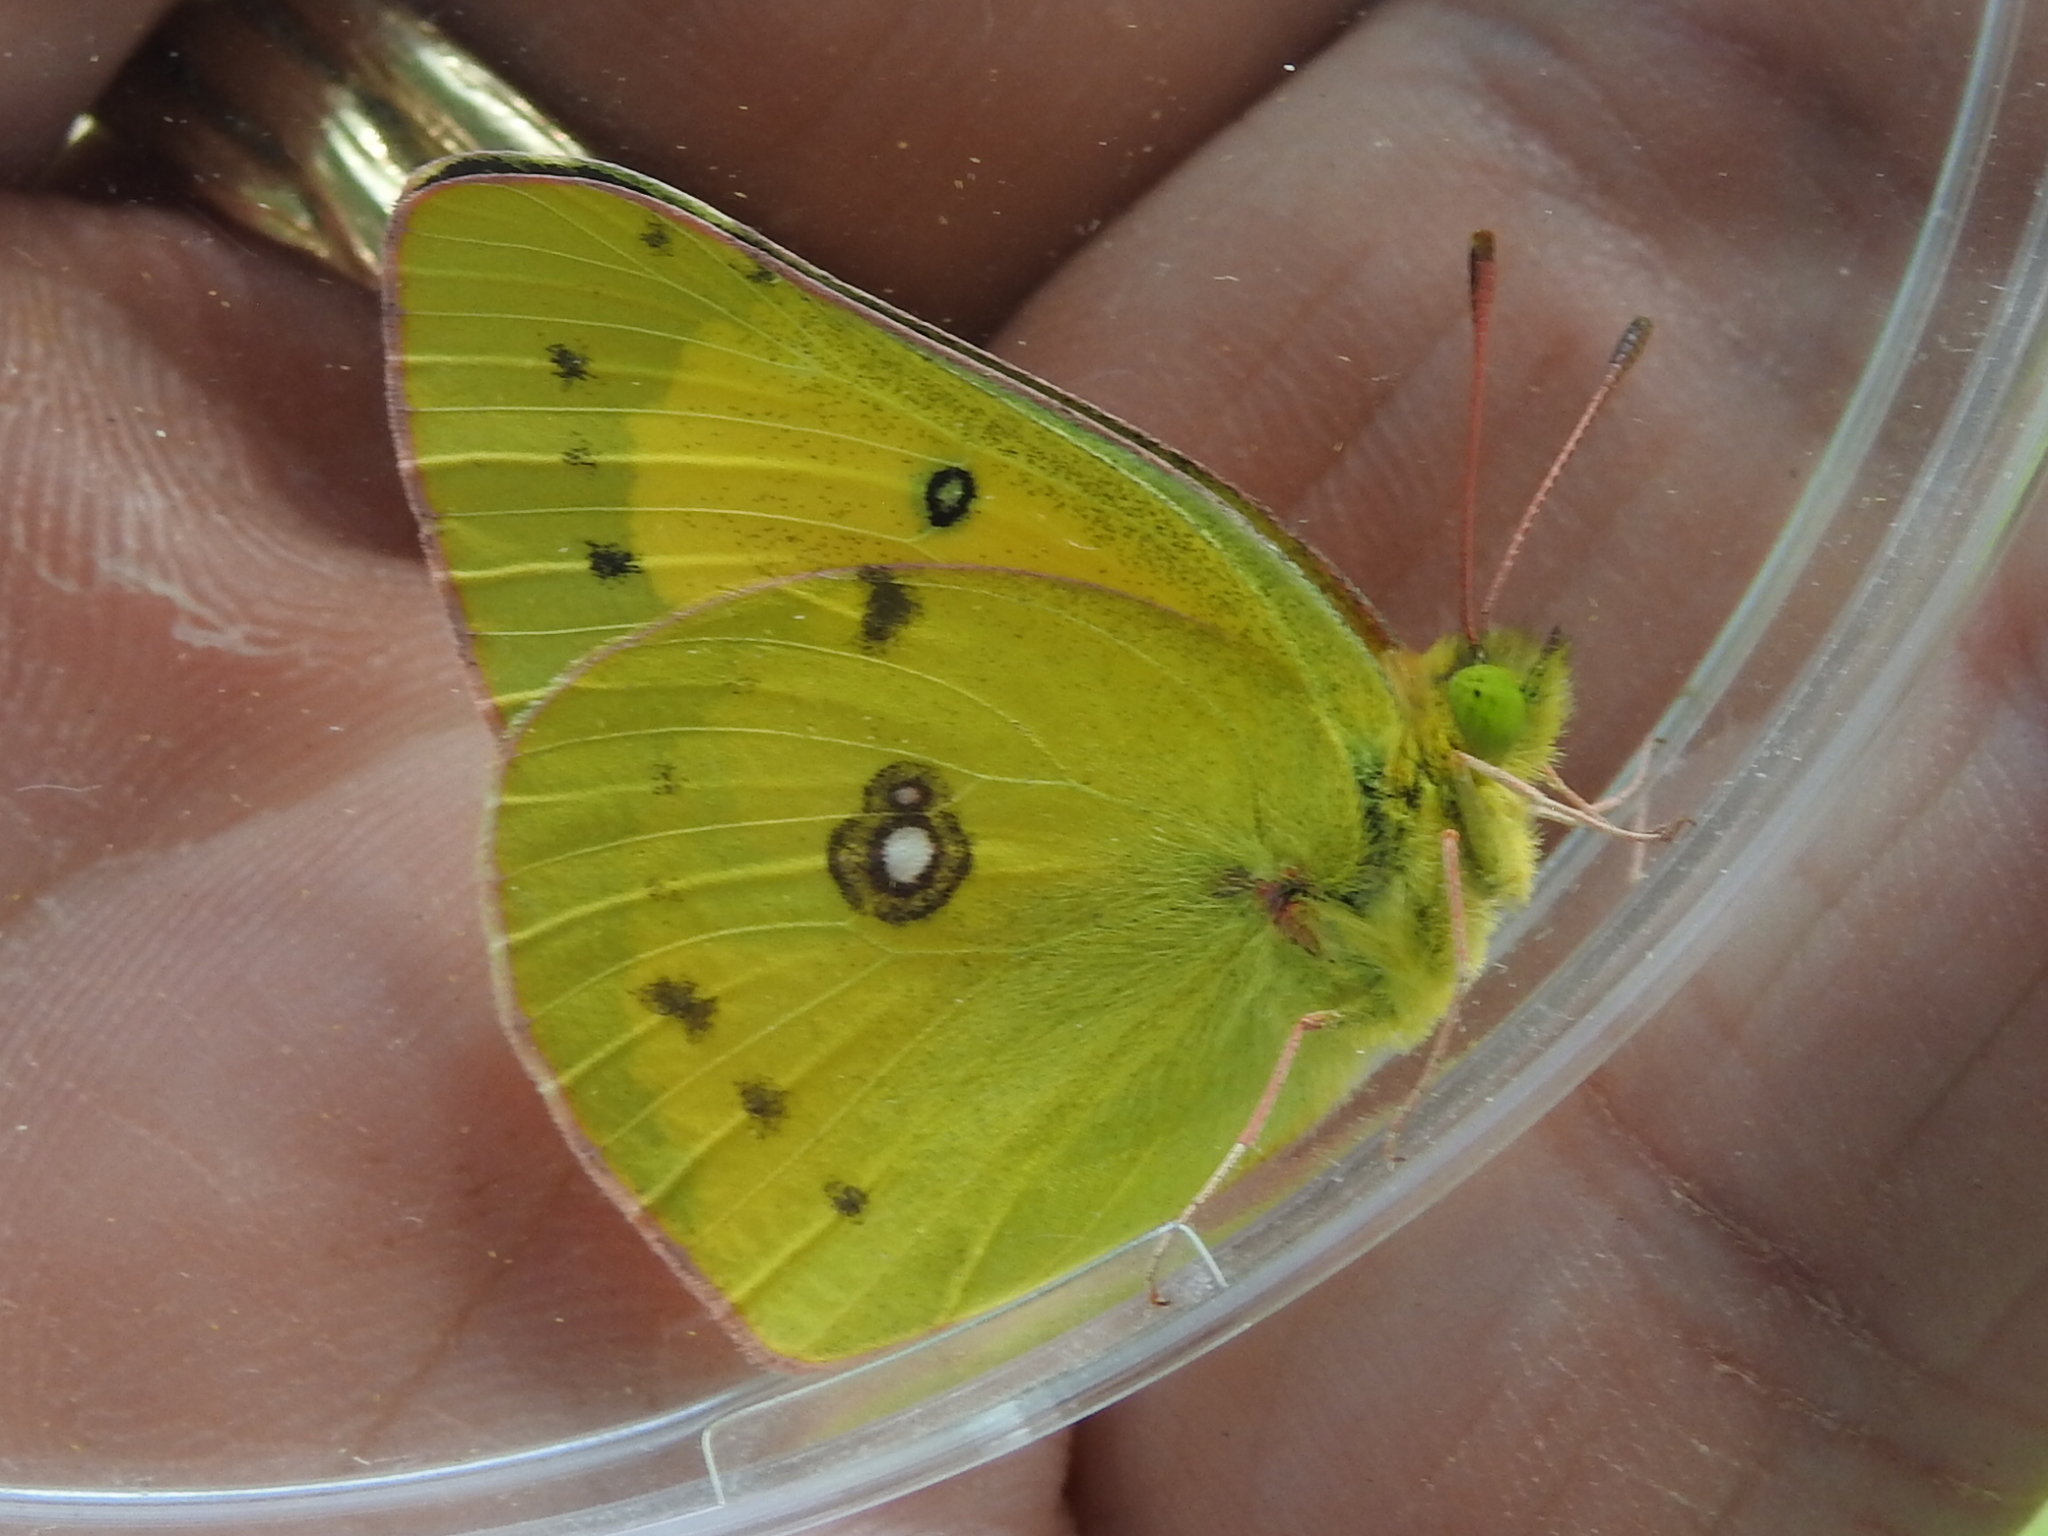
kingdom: Animalia
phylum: Arthropoda
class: Insecta
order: Lepidoptera
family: Pieridae
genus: Colias
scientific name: Colias eurytheme
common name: Alfalfa butterfly
